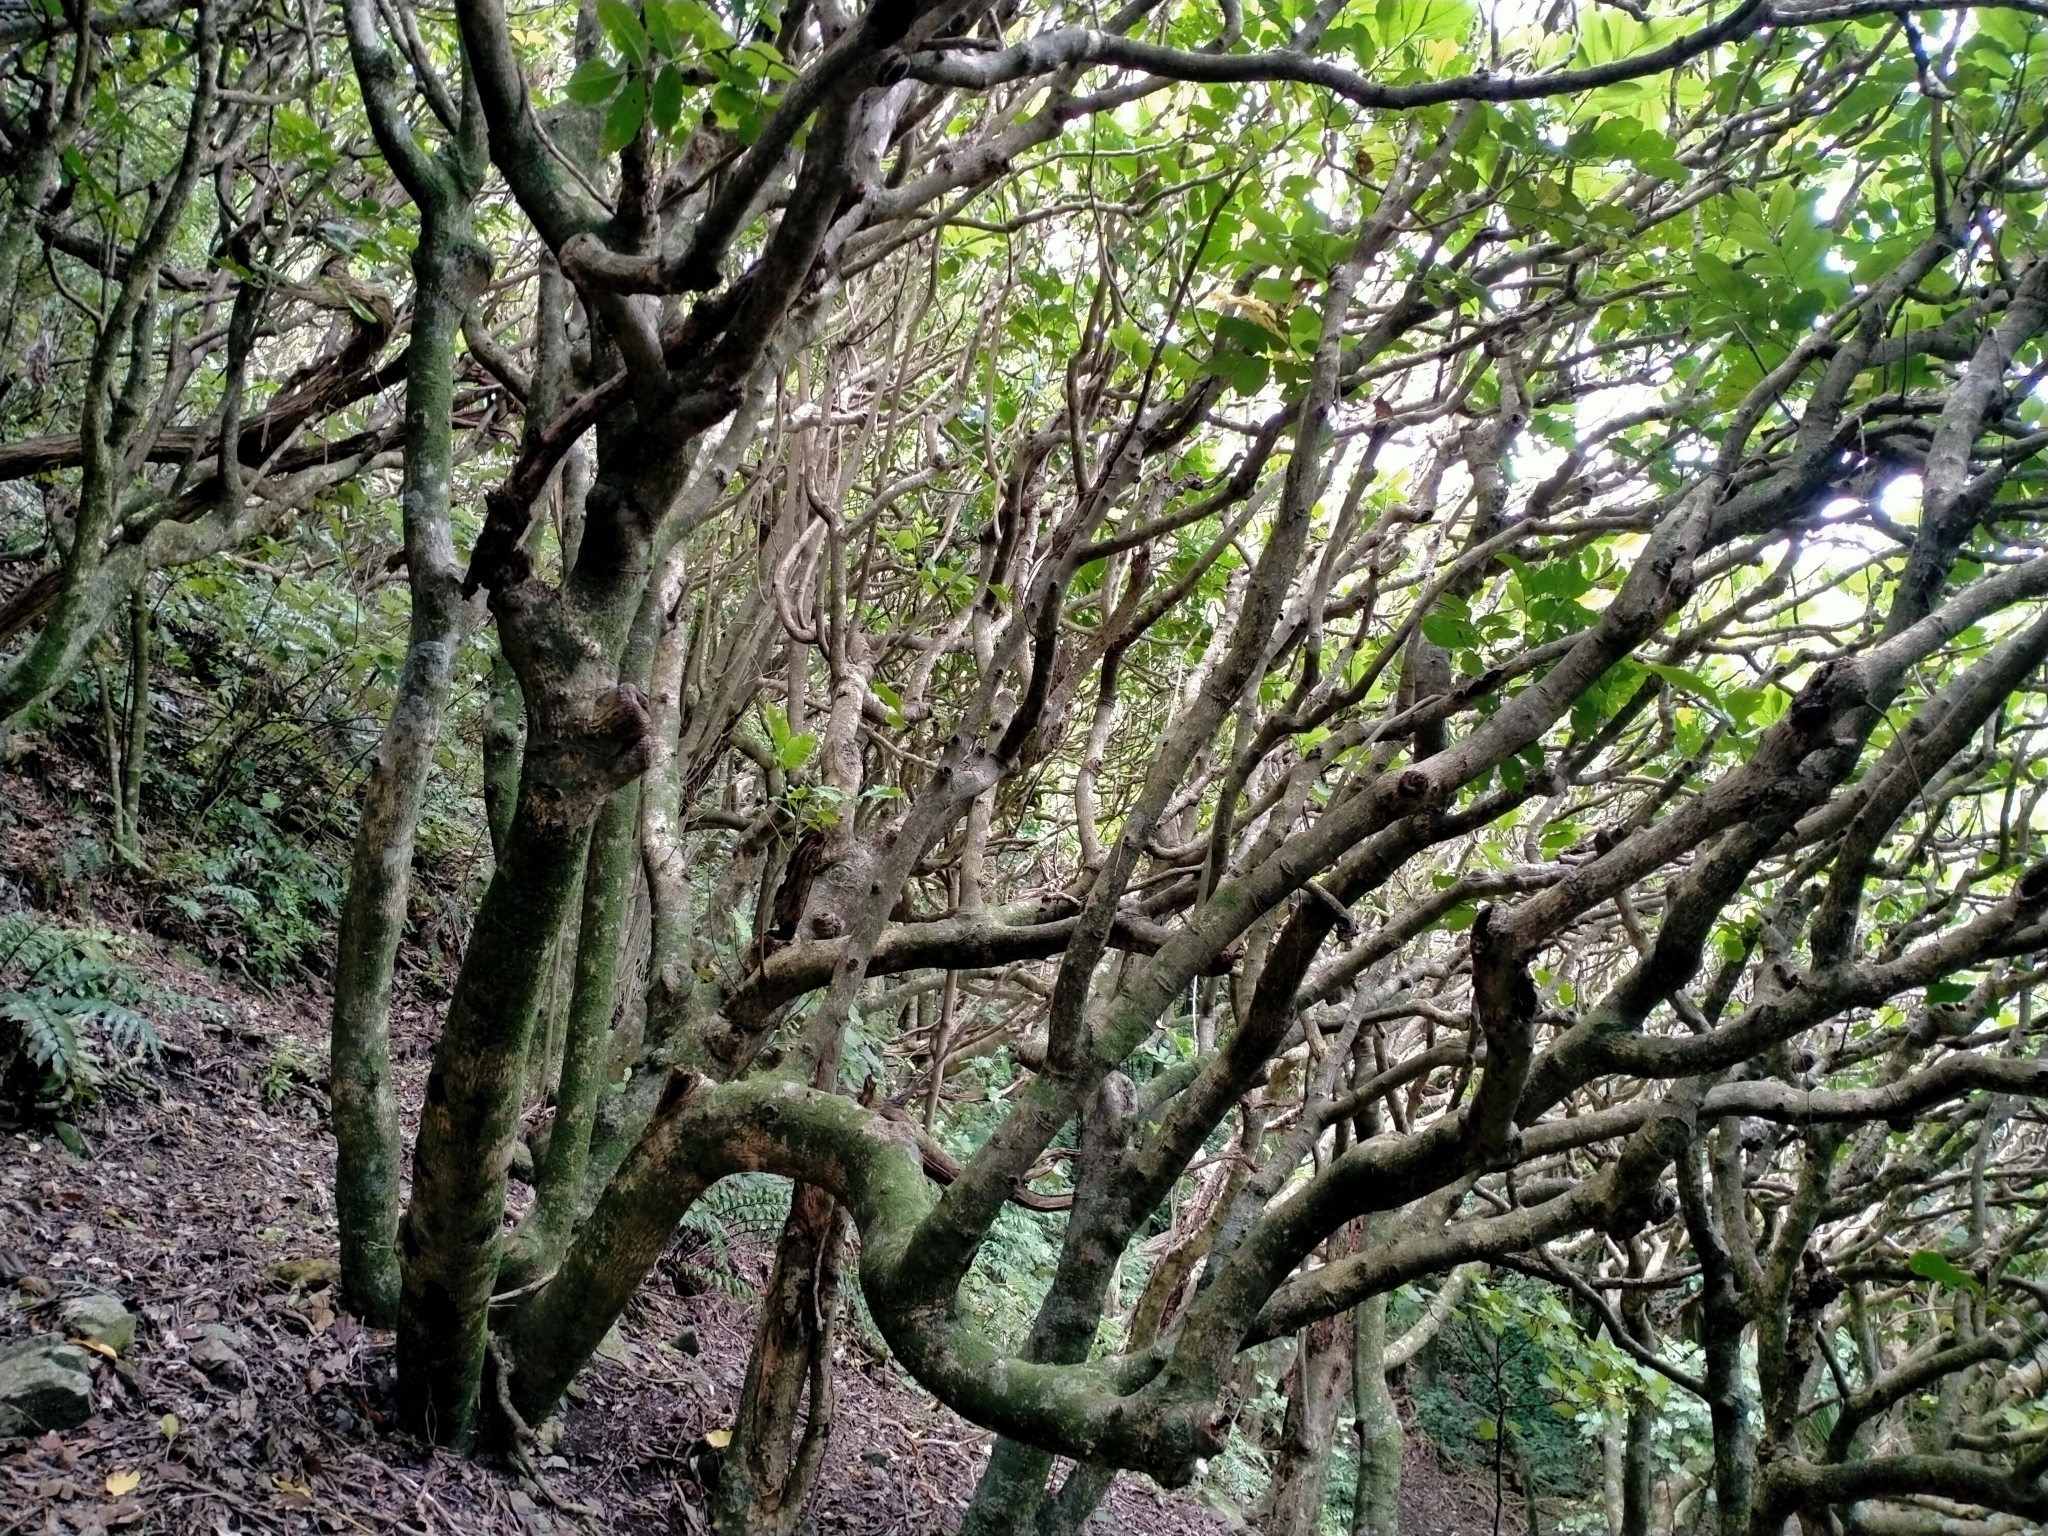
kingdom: Plantae
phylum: Tracheophyta
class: Magnoliopsida
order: Sapindales
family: Meliaceae
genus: Didymocheton
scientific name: Didymocheton spectabilis
